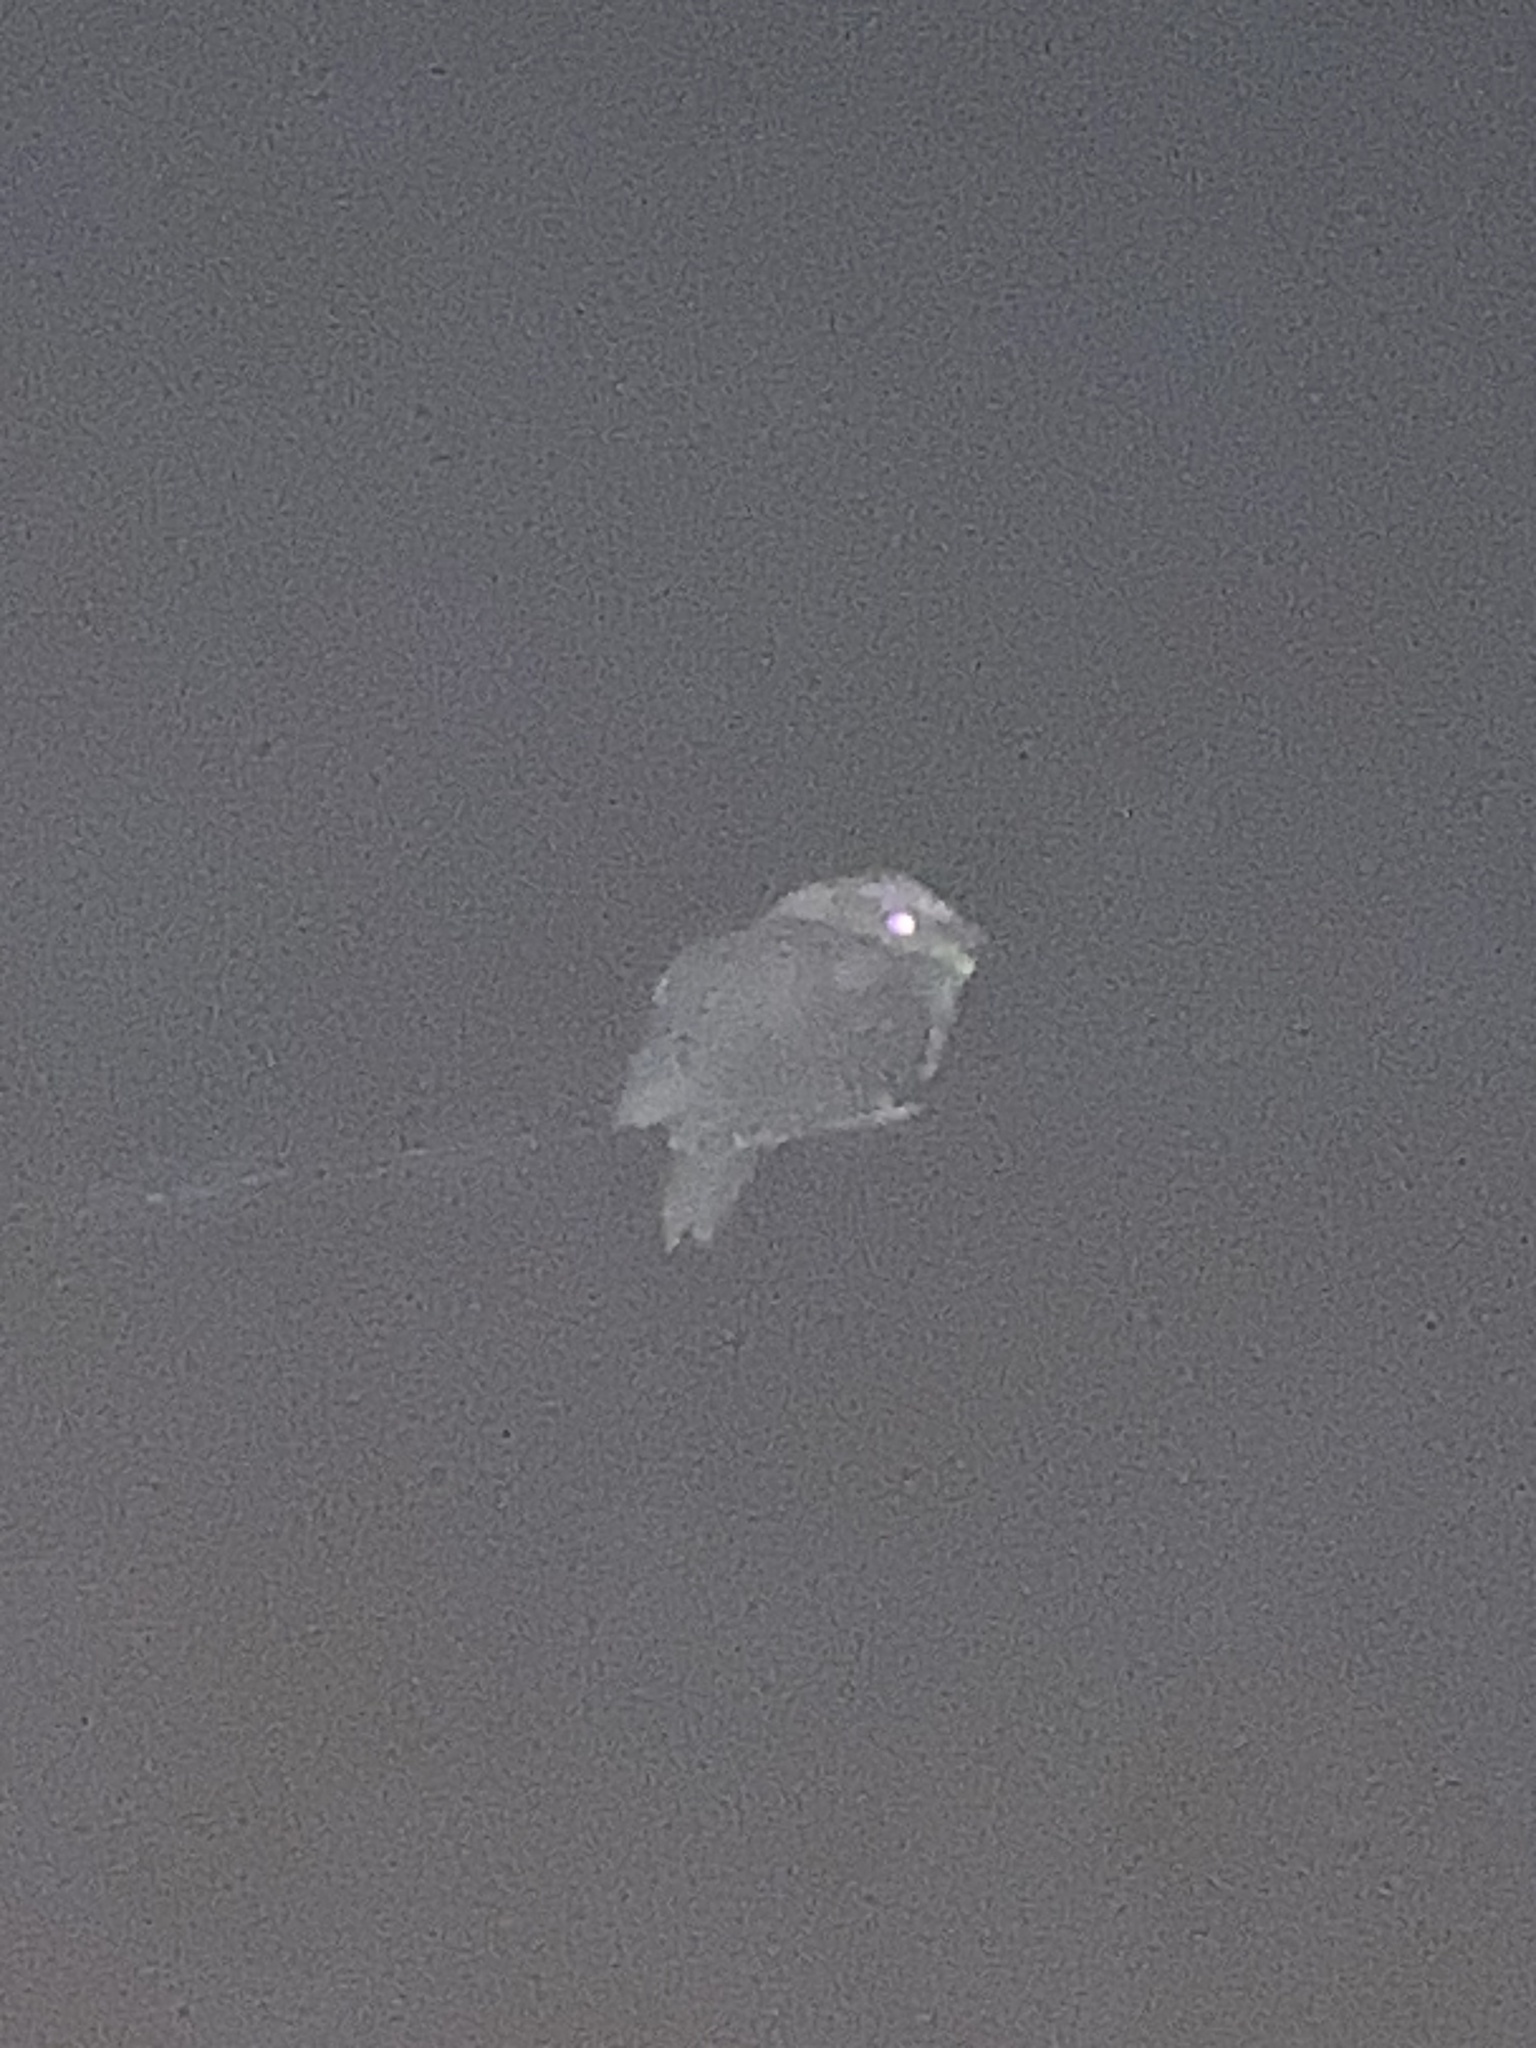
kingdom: Animalia
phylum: Chordata
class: Aves
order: Caprimulgiformes
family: Podargidae
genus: Podargus
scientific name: Podargus strigoides
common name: Tawny frogmouth
